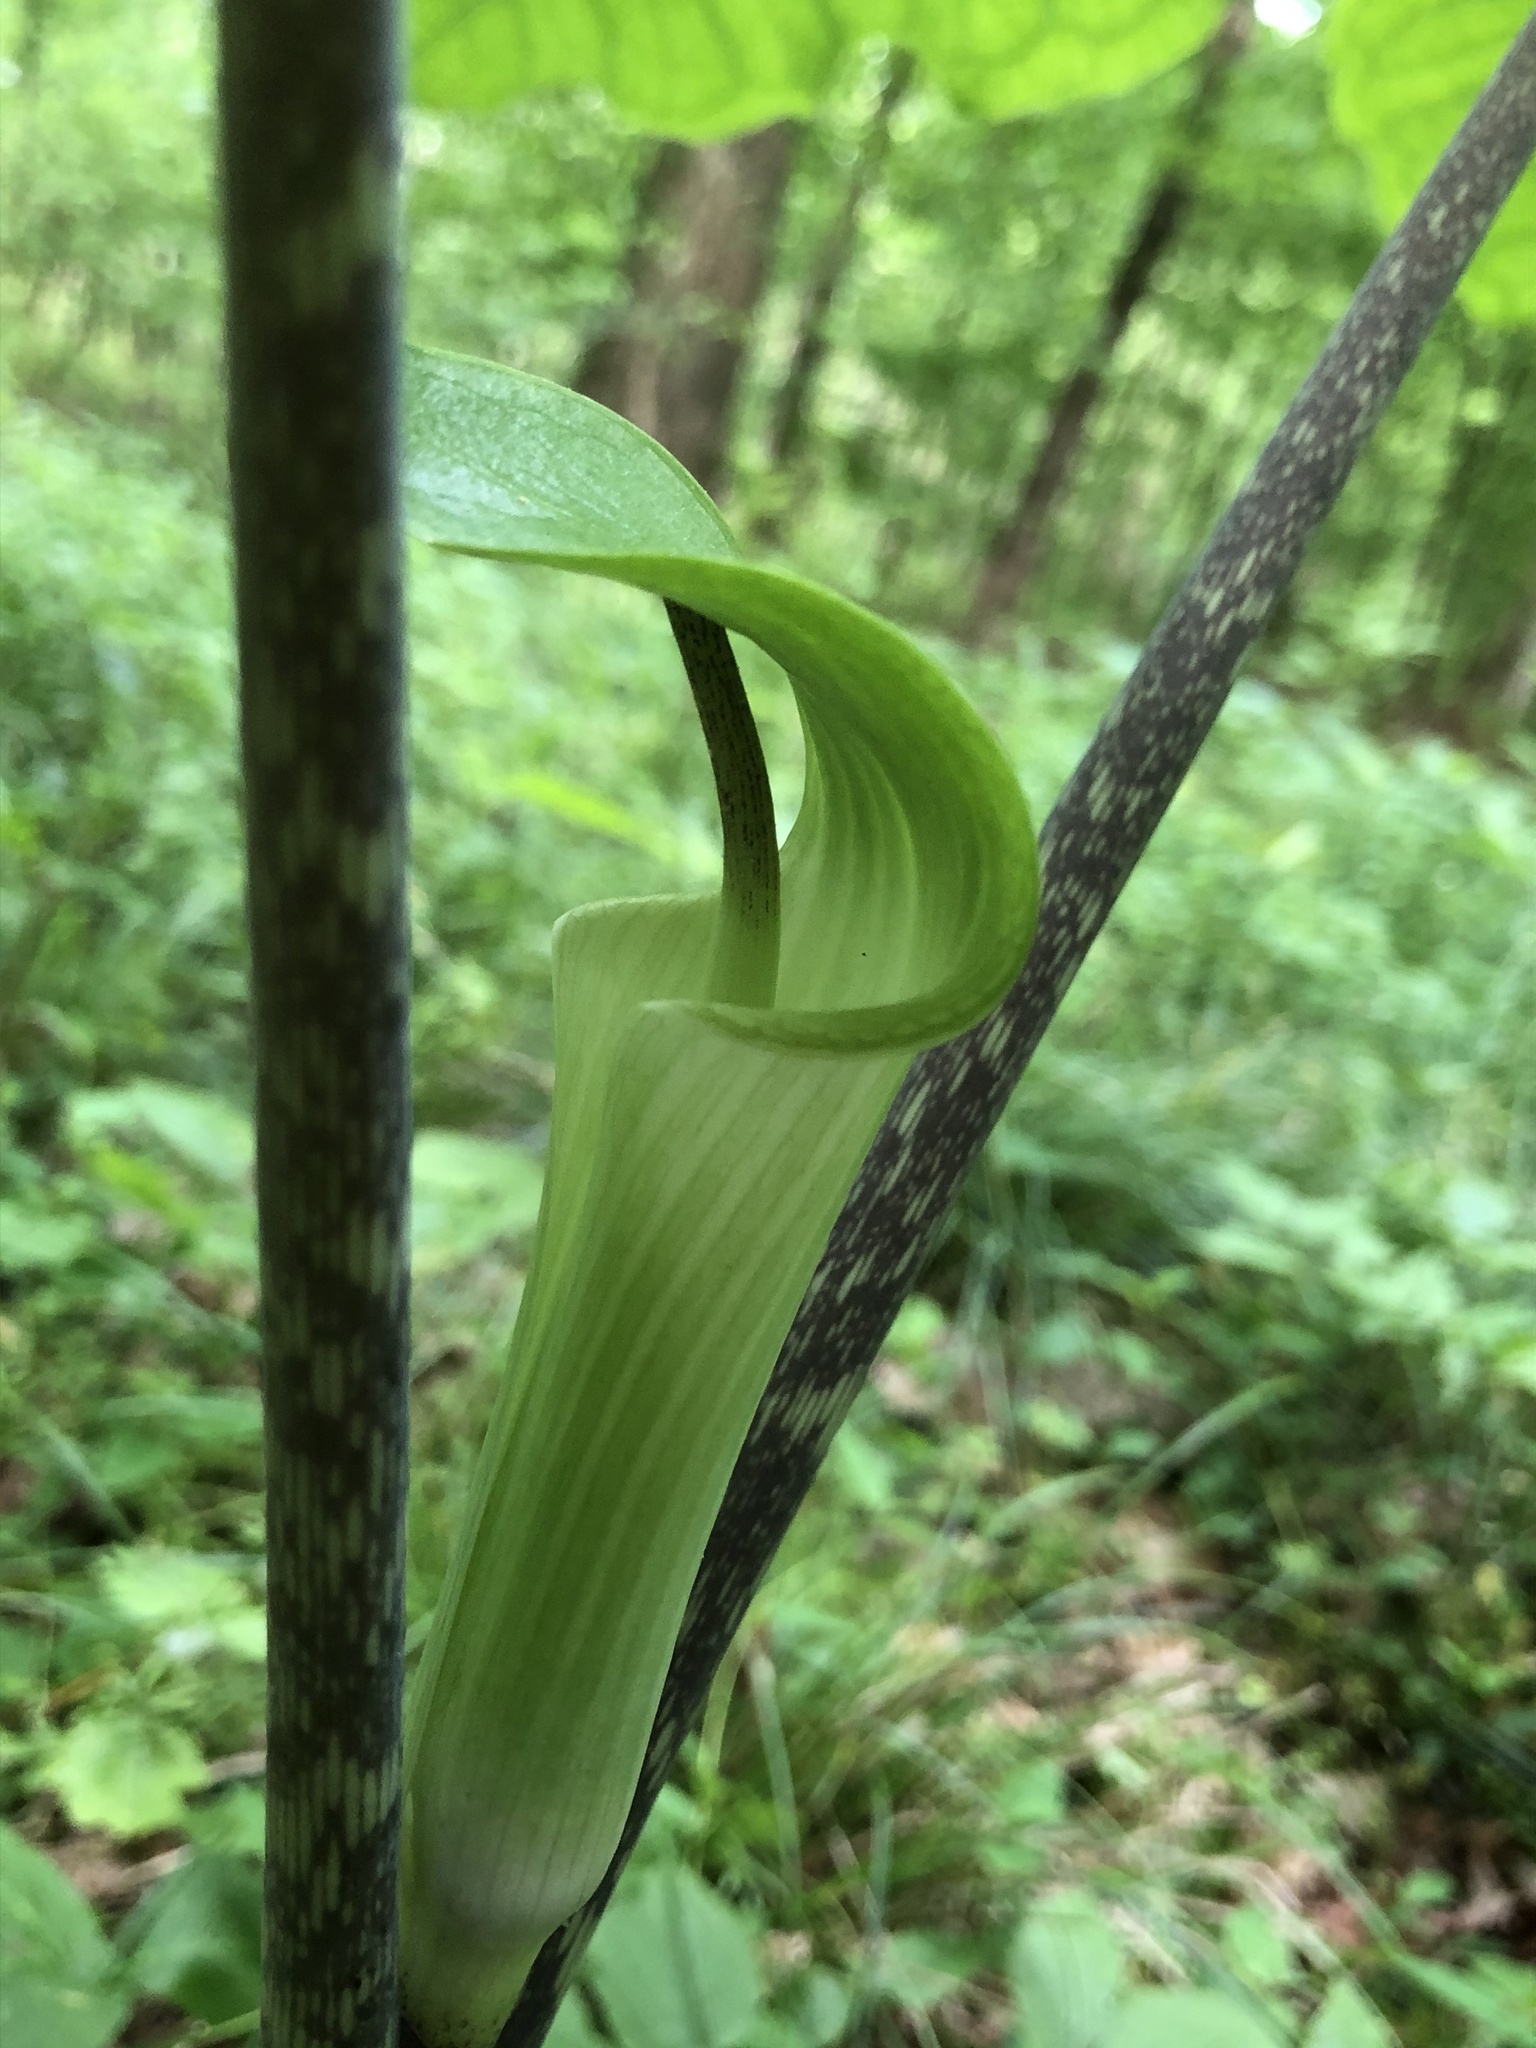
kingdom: Plantae
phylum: Tracheophyta
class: Liliopsida
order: Alismatales
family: Araceae
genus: Arisaema
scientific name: Arisaema quinatum
